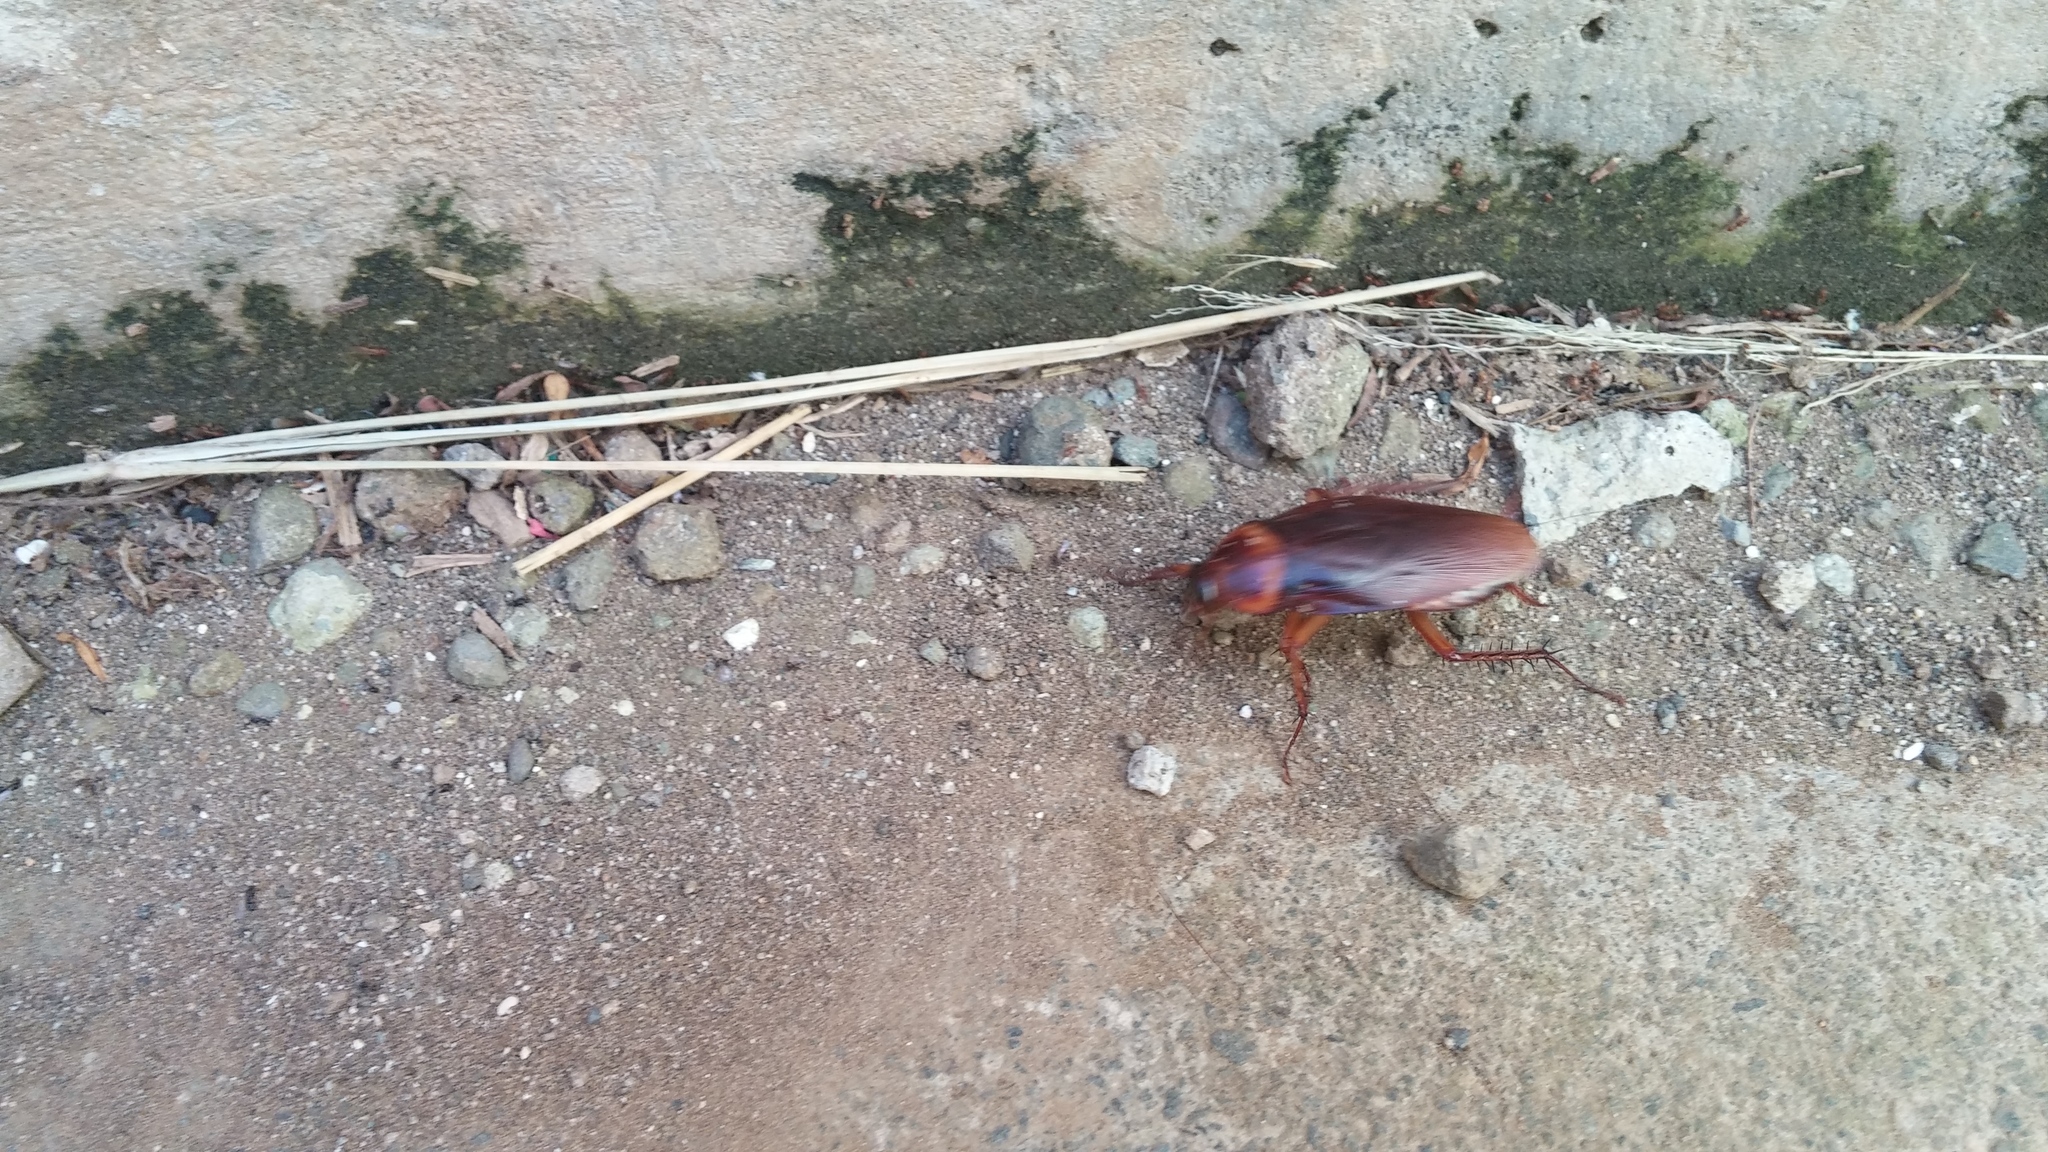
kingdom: Animalia
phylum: Arthropoda
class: Insecta
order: Blattodea
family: Blattidae
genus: Periplaneta
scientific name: Periplaneta americana
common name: American cockroach
